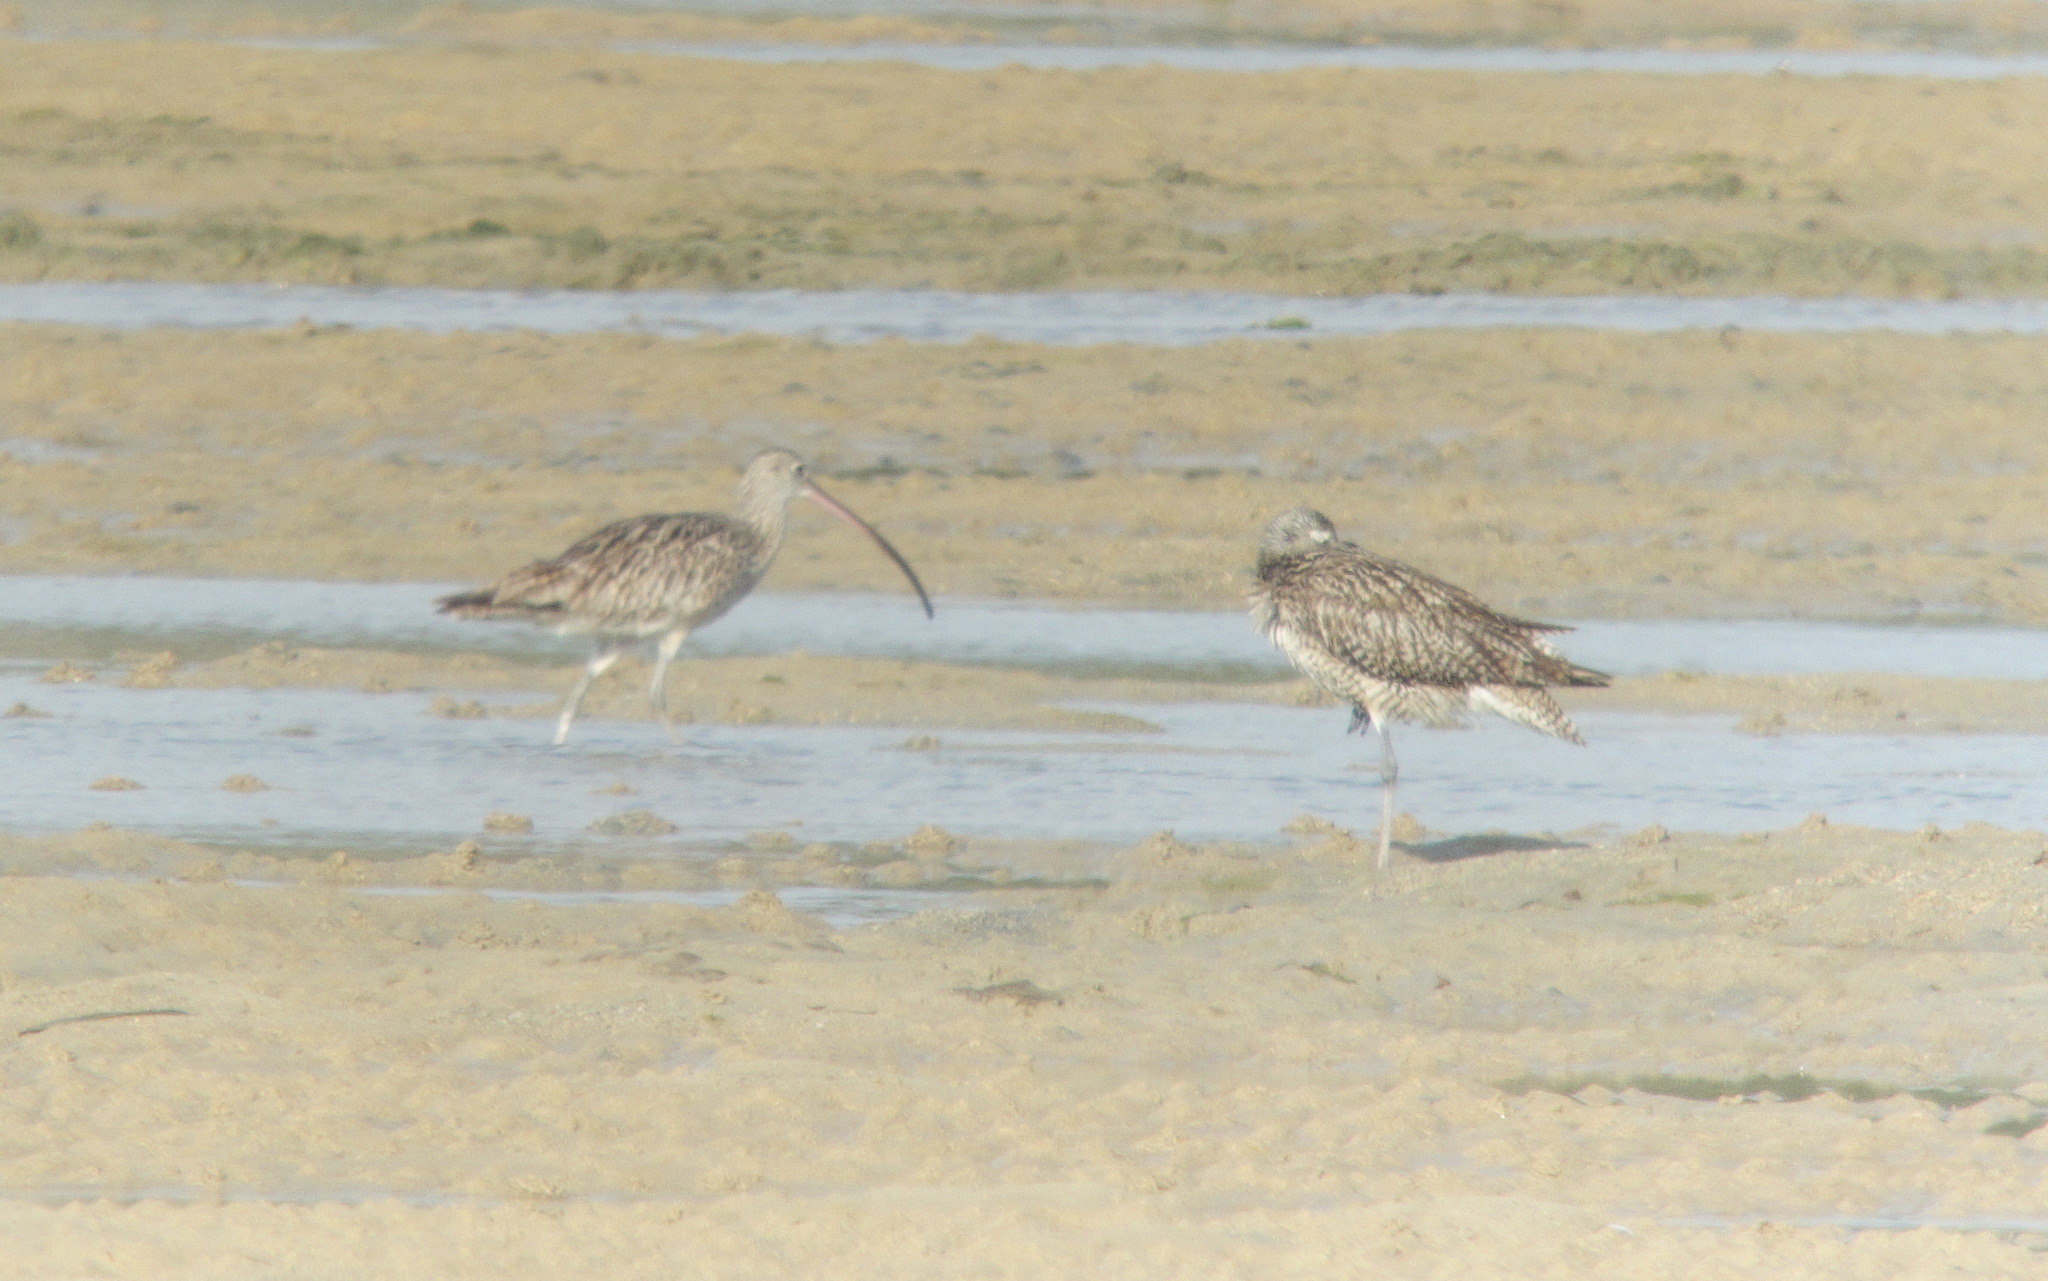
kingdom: Animalia
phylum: Chordata
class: Aves
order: Charadriiformes
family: Scolopacidae
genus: Numenius
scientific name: Numenius madagascariensis
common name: Far eastern curlew
